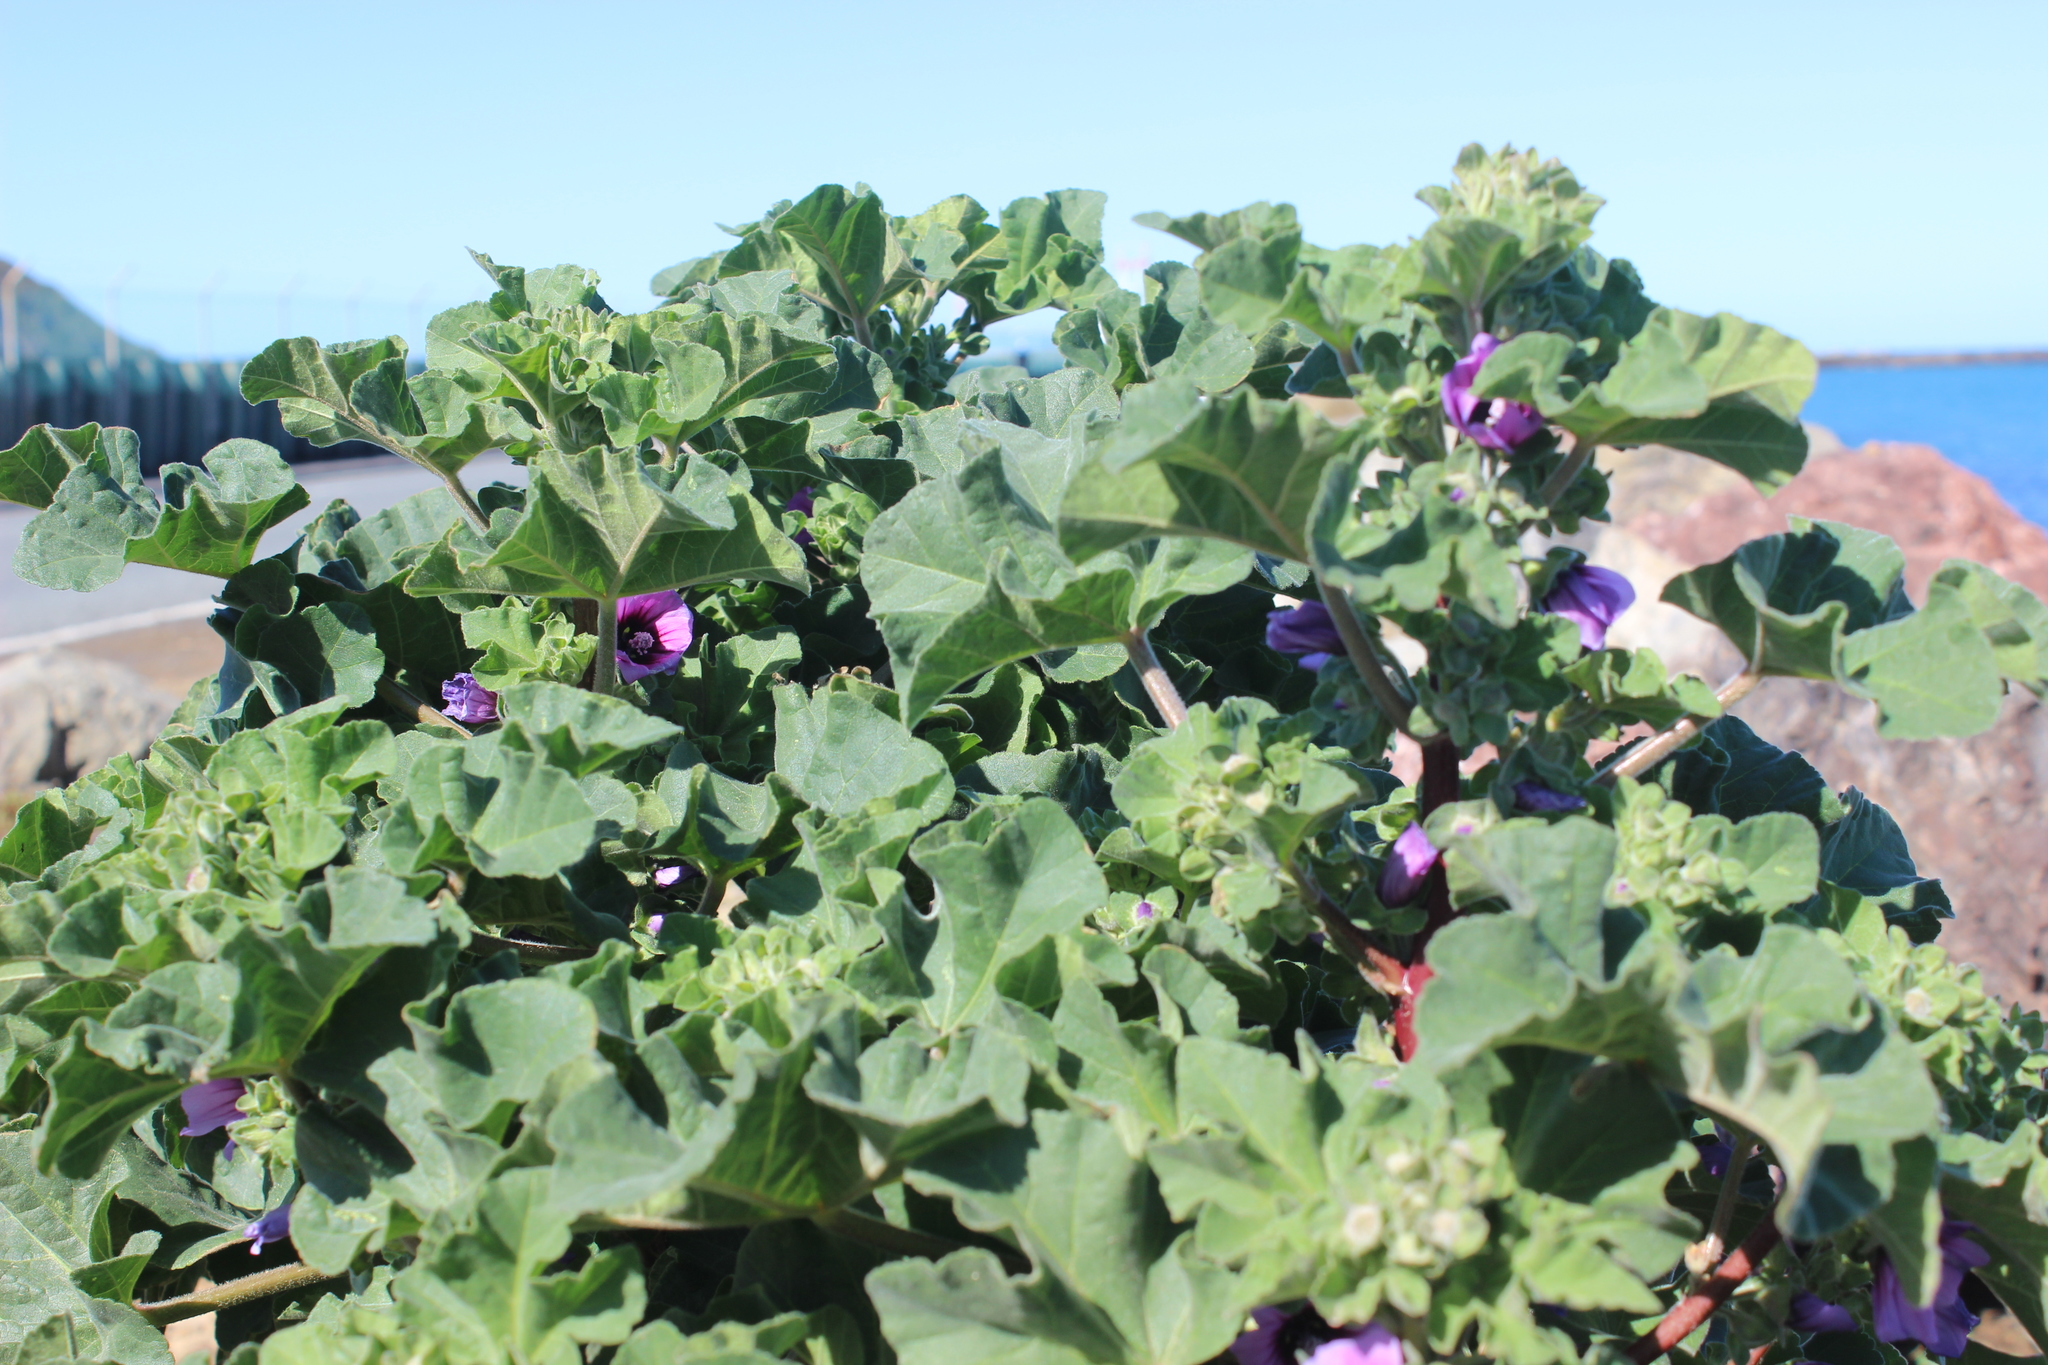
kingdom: Plantae
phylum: Tracheophyta
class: Magnoliopsida
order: Malvales
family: Malvaceae
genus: Malva
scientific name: Malva arborea
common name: Tree mallow
